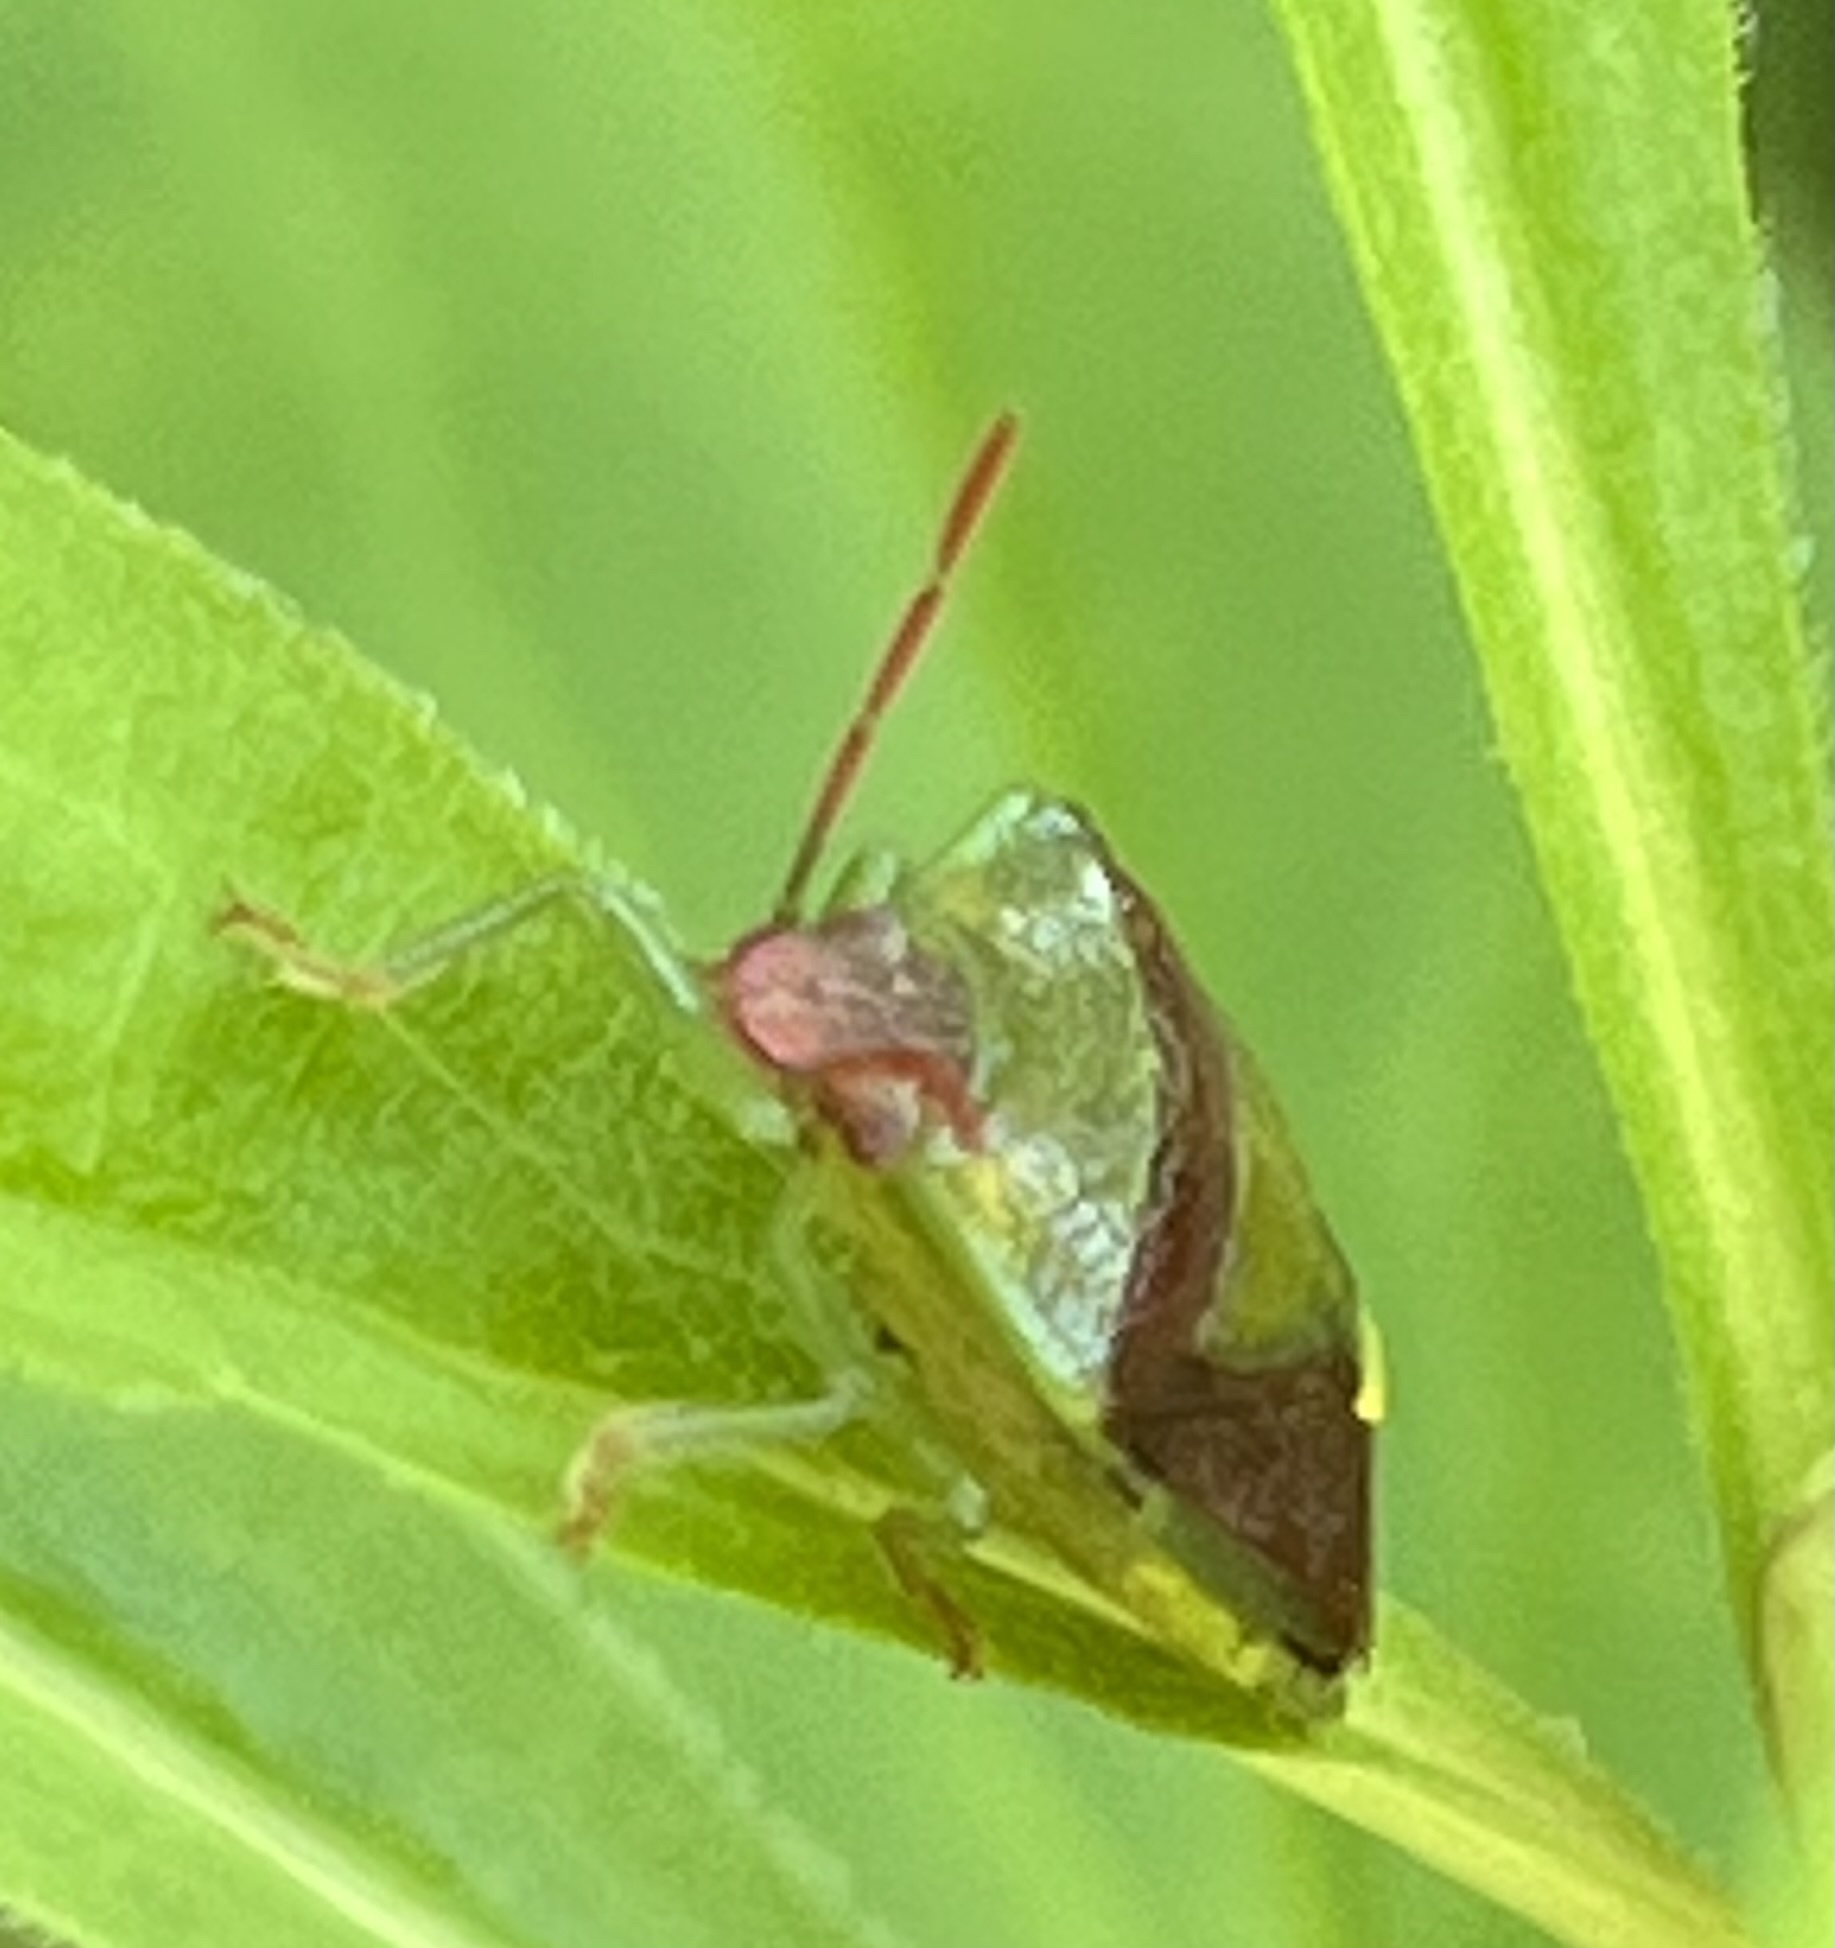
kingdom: Animalia
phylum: Arthropoda
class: Insecta
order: Hemiptera
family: Pentatomidae
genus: Banasa
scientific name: Banasa dimidiata
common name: Green burgundy stink bug
